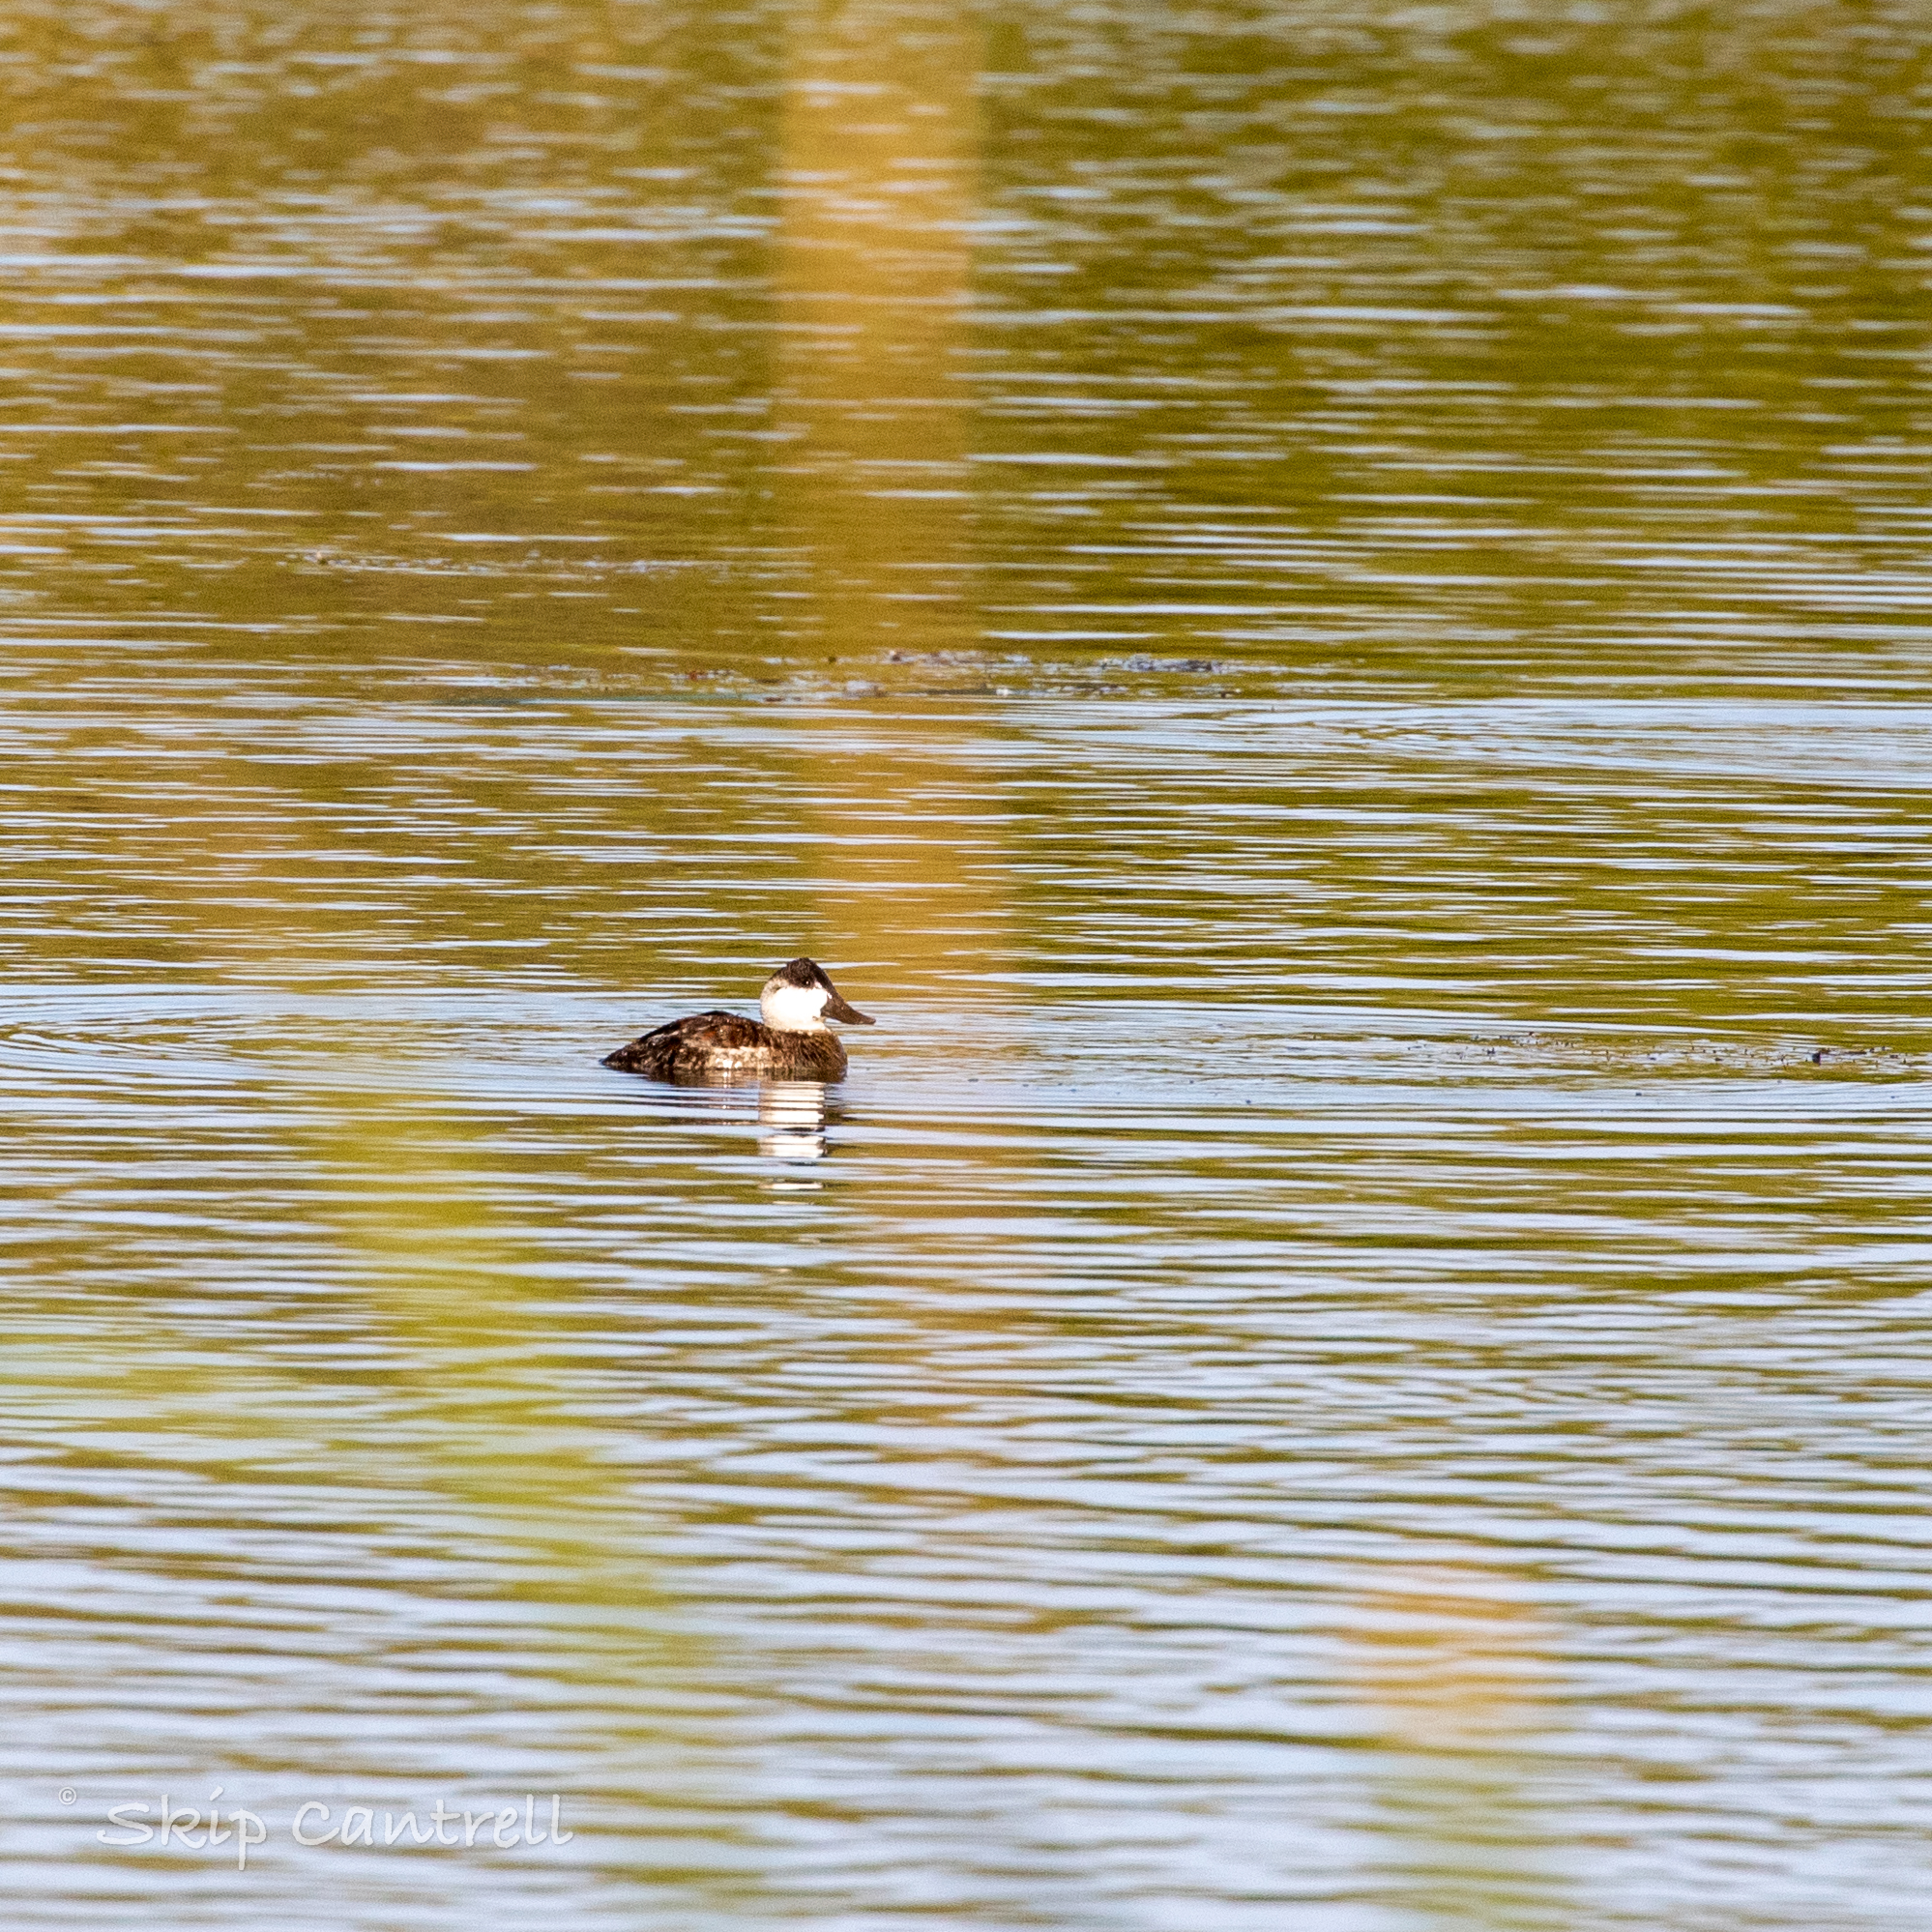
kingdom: Animalia
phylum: Chordata
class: Aves
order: Anseriformes
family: Anatidae
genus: Oxyura
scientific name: Oxyura jamaicensis
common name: Ruddy duck
